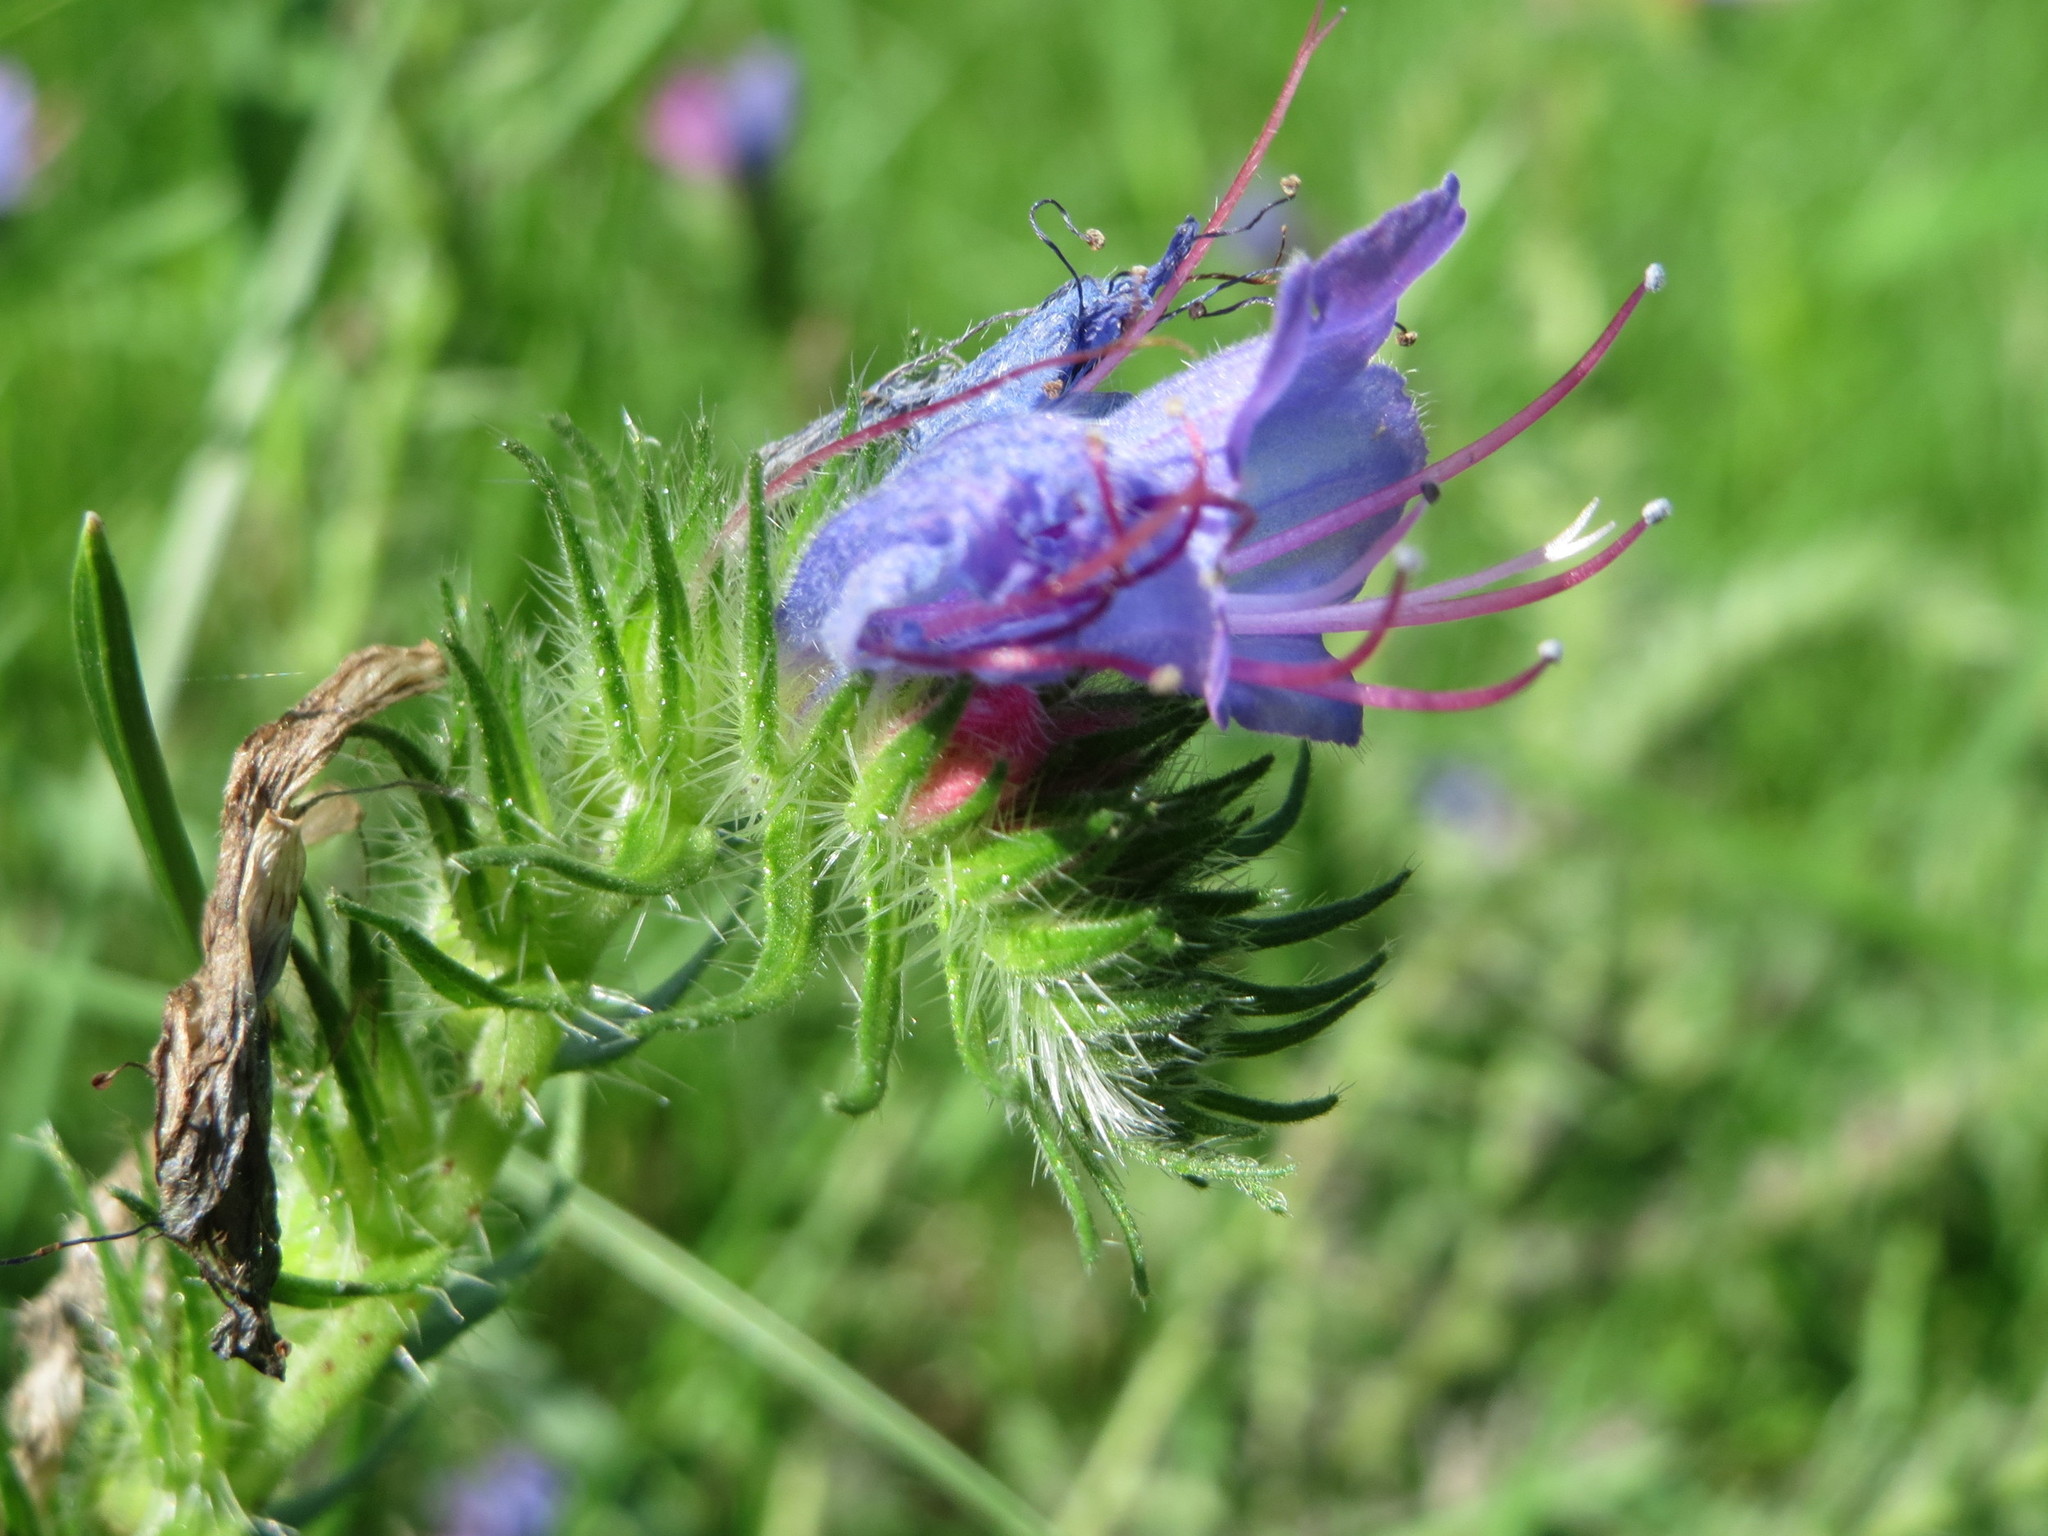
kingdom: Plantae
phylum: Tracheophyta
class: Magnoliopsida
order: Boraginales
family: Boraginaceae
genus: Echium
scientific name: Echium vulgare
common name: Common viper's bugloss
